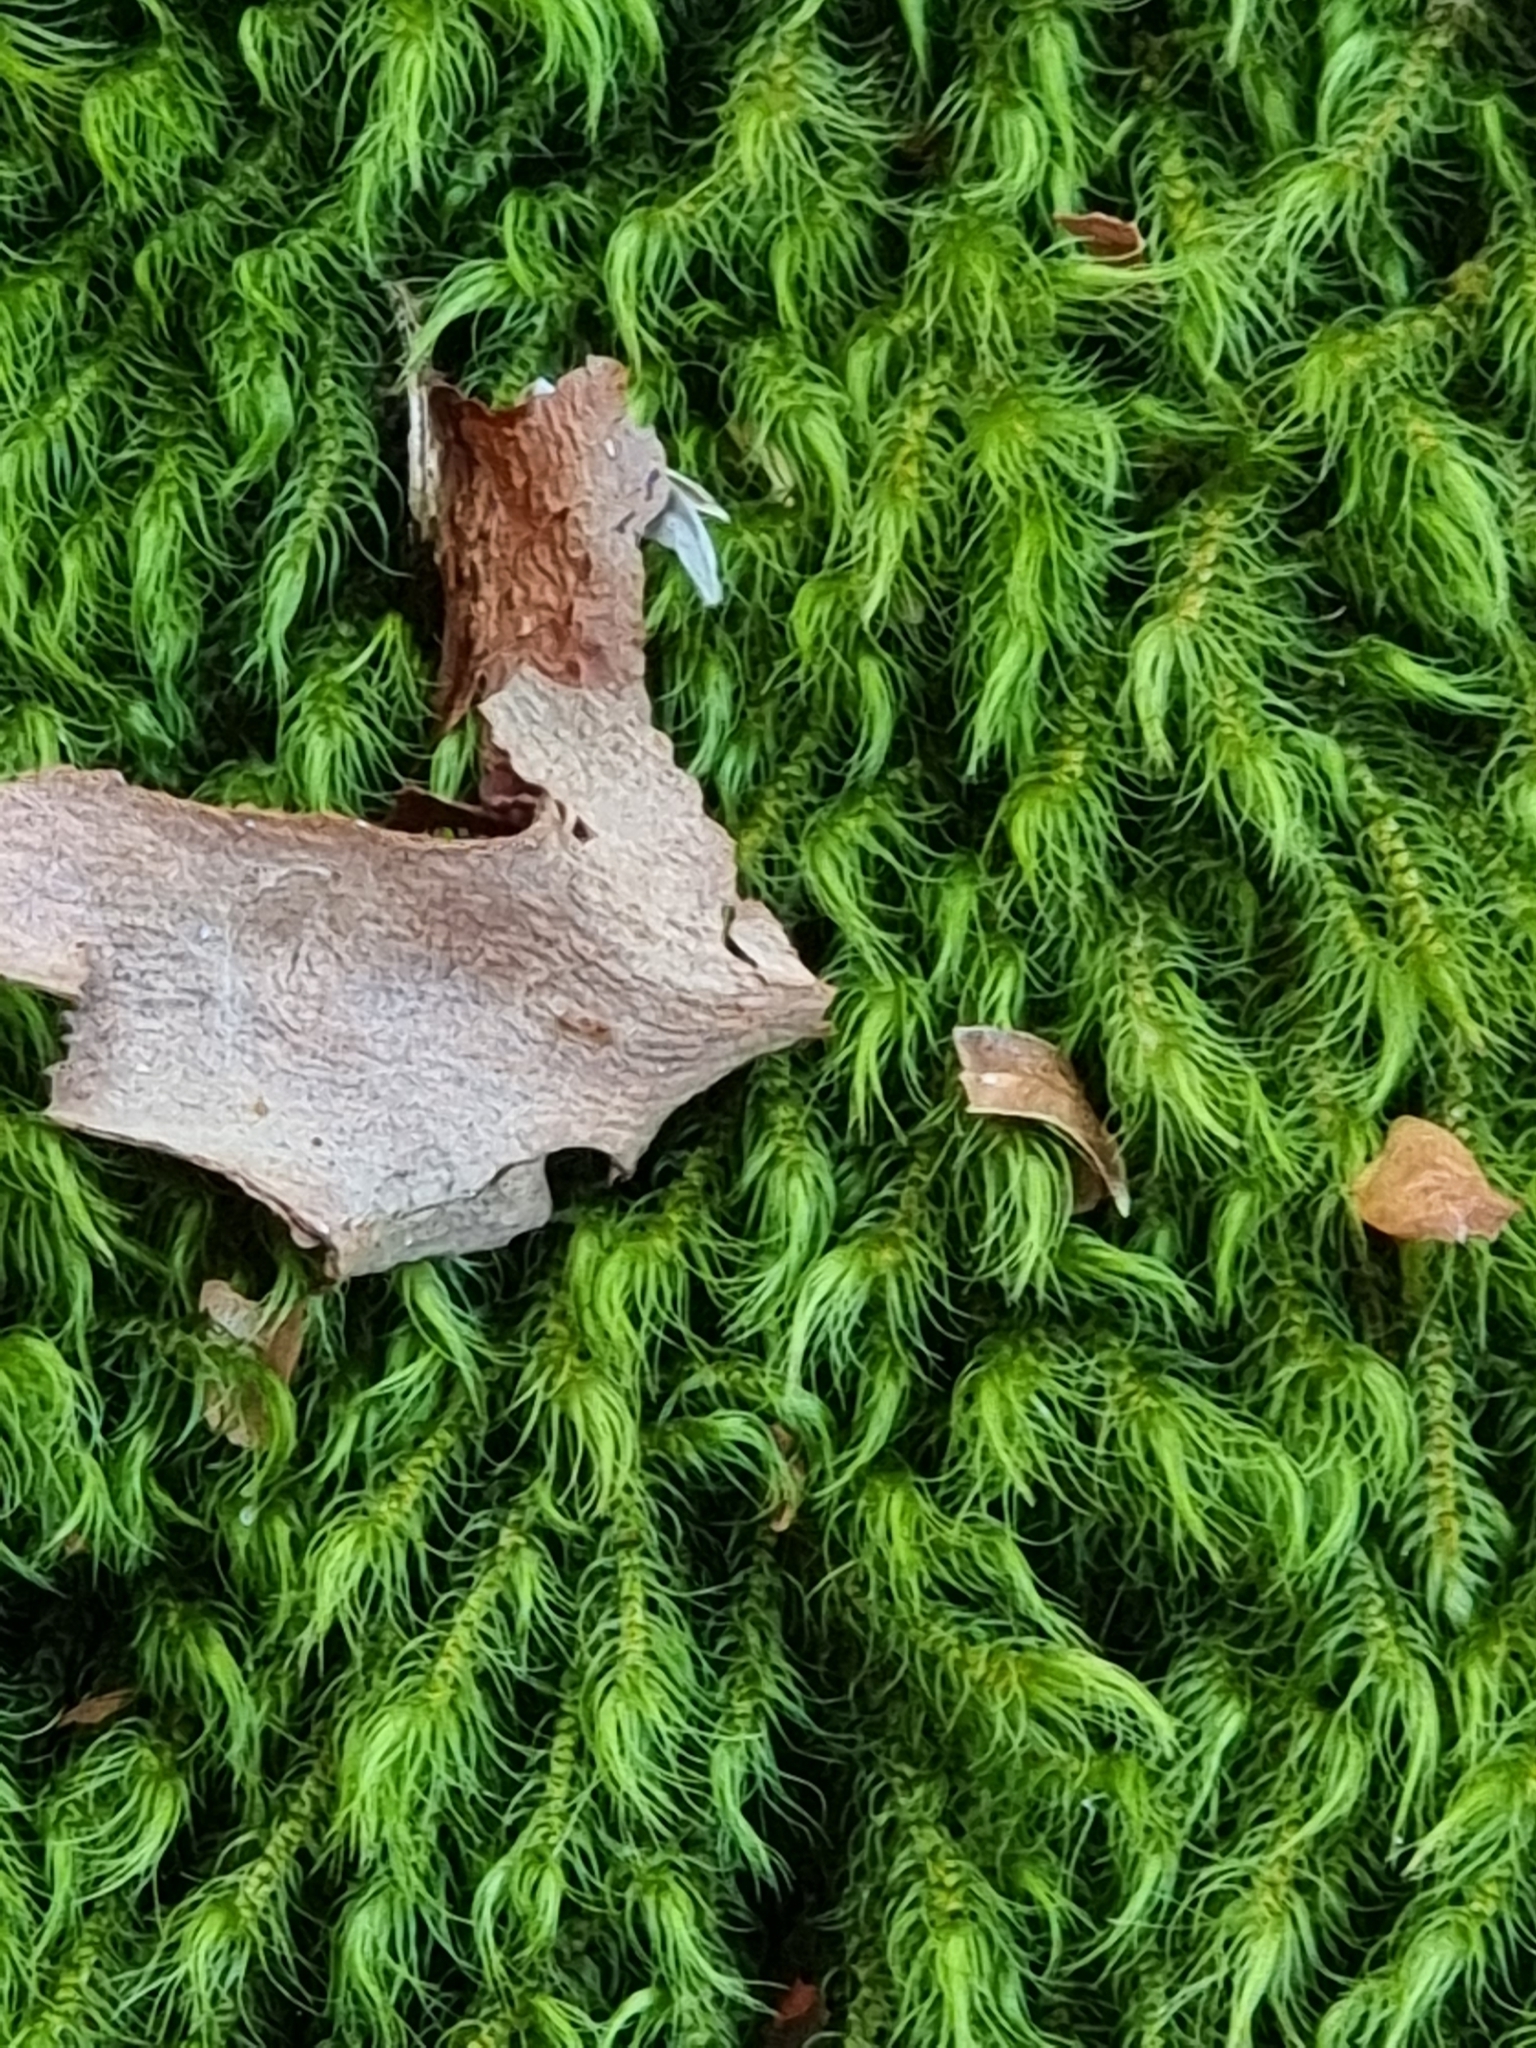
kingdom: Plantae
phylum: Bryophyta
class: Bryopsida
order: Hypnales
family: Neckeraceae
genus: Echinodiopsis
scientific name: Echinodiopsis hispida
